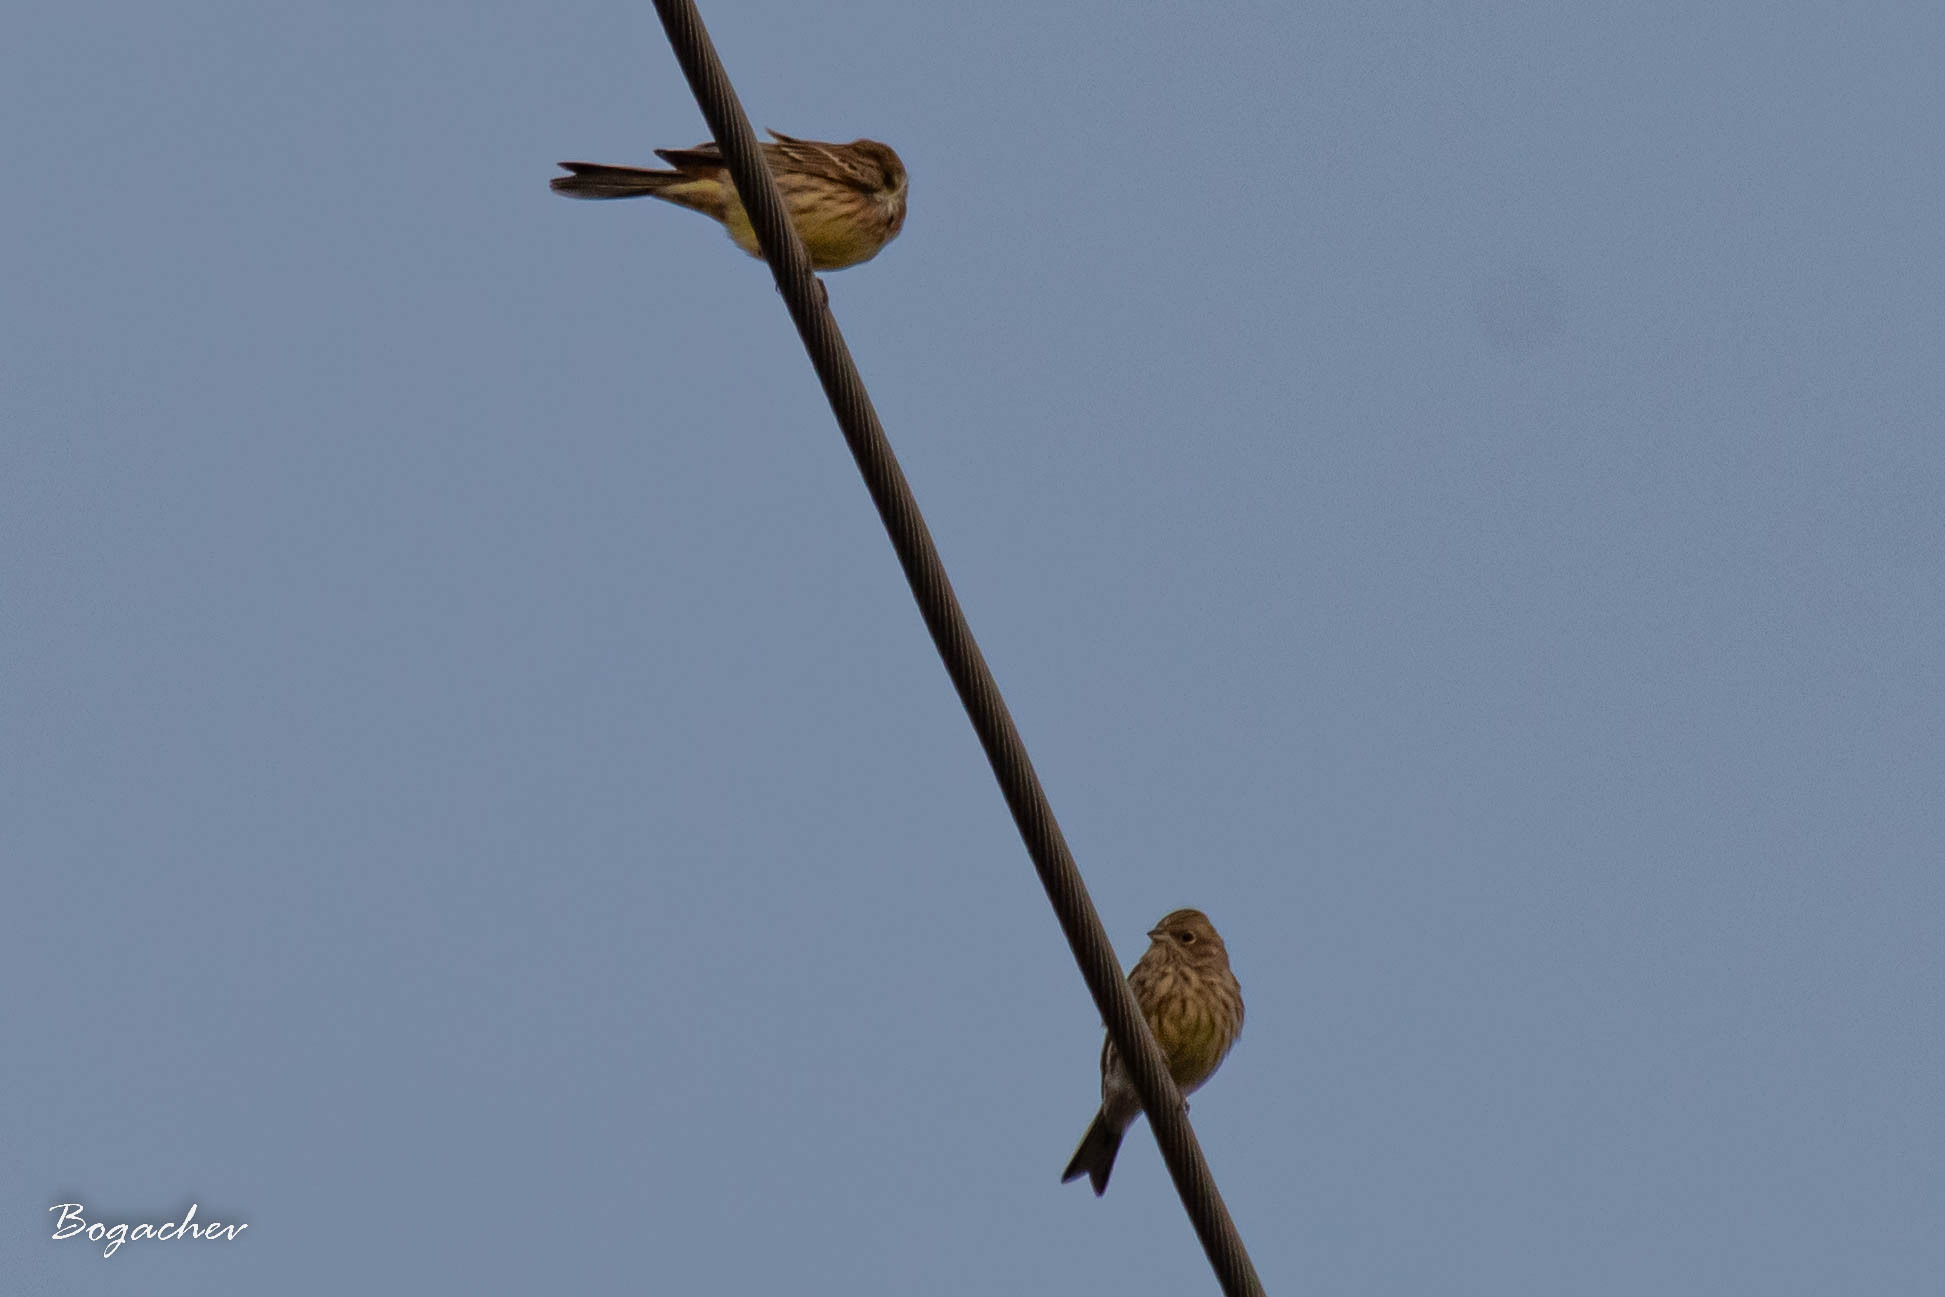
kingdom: Animalia
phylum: Chordata
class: Aves
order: Passeriformes
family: Emberizidae
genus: Emberiza
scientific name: Emberiza citrinella
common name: Yellowhammer
